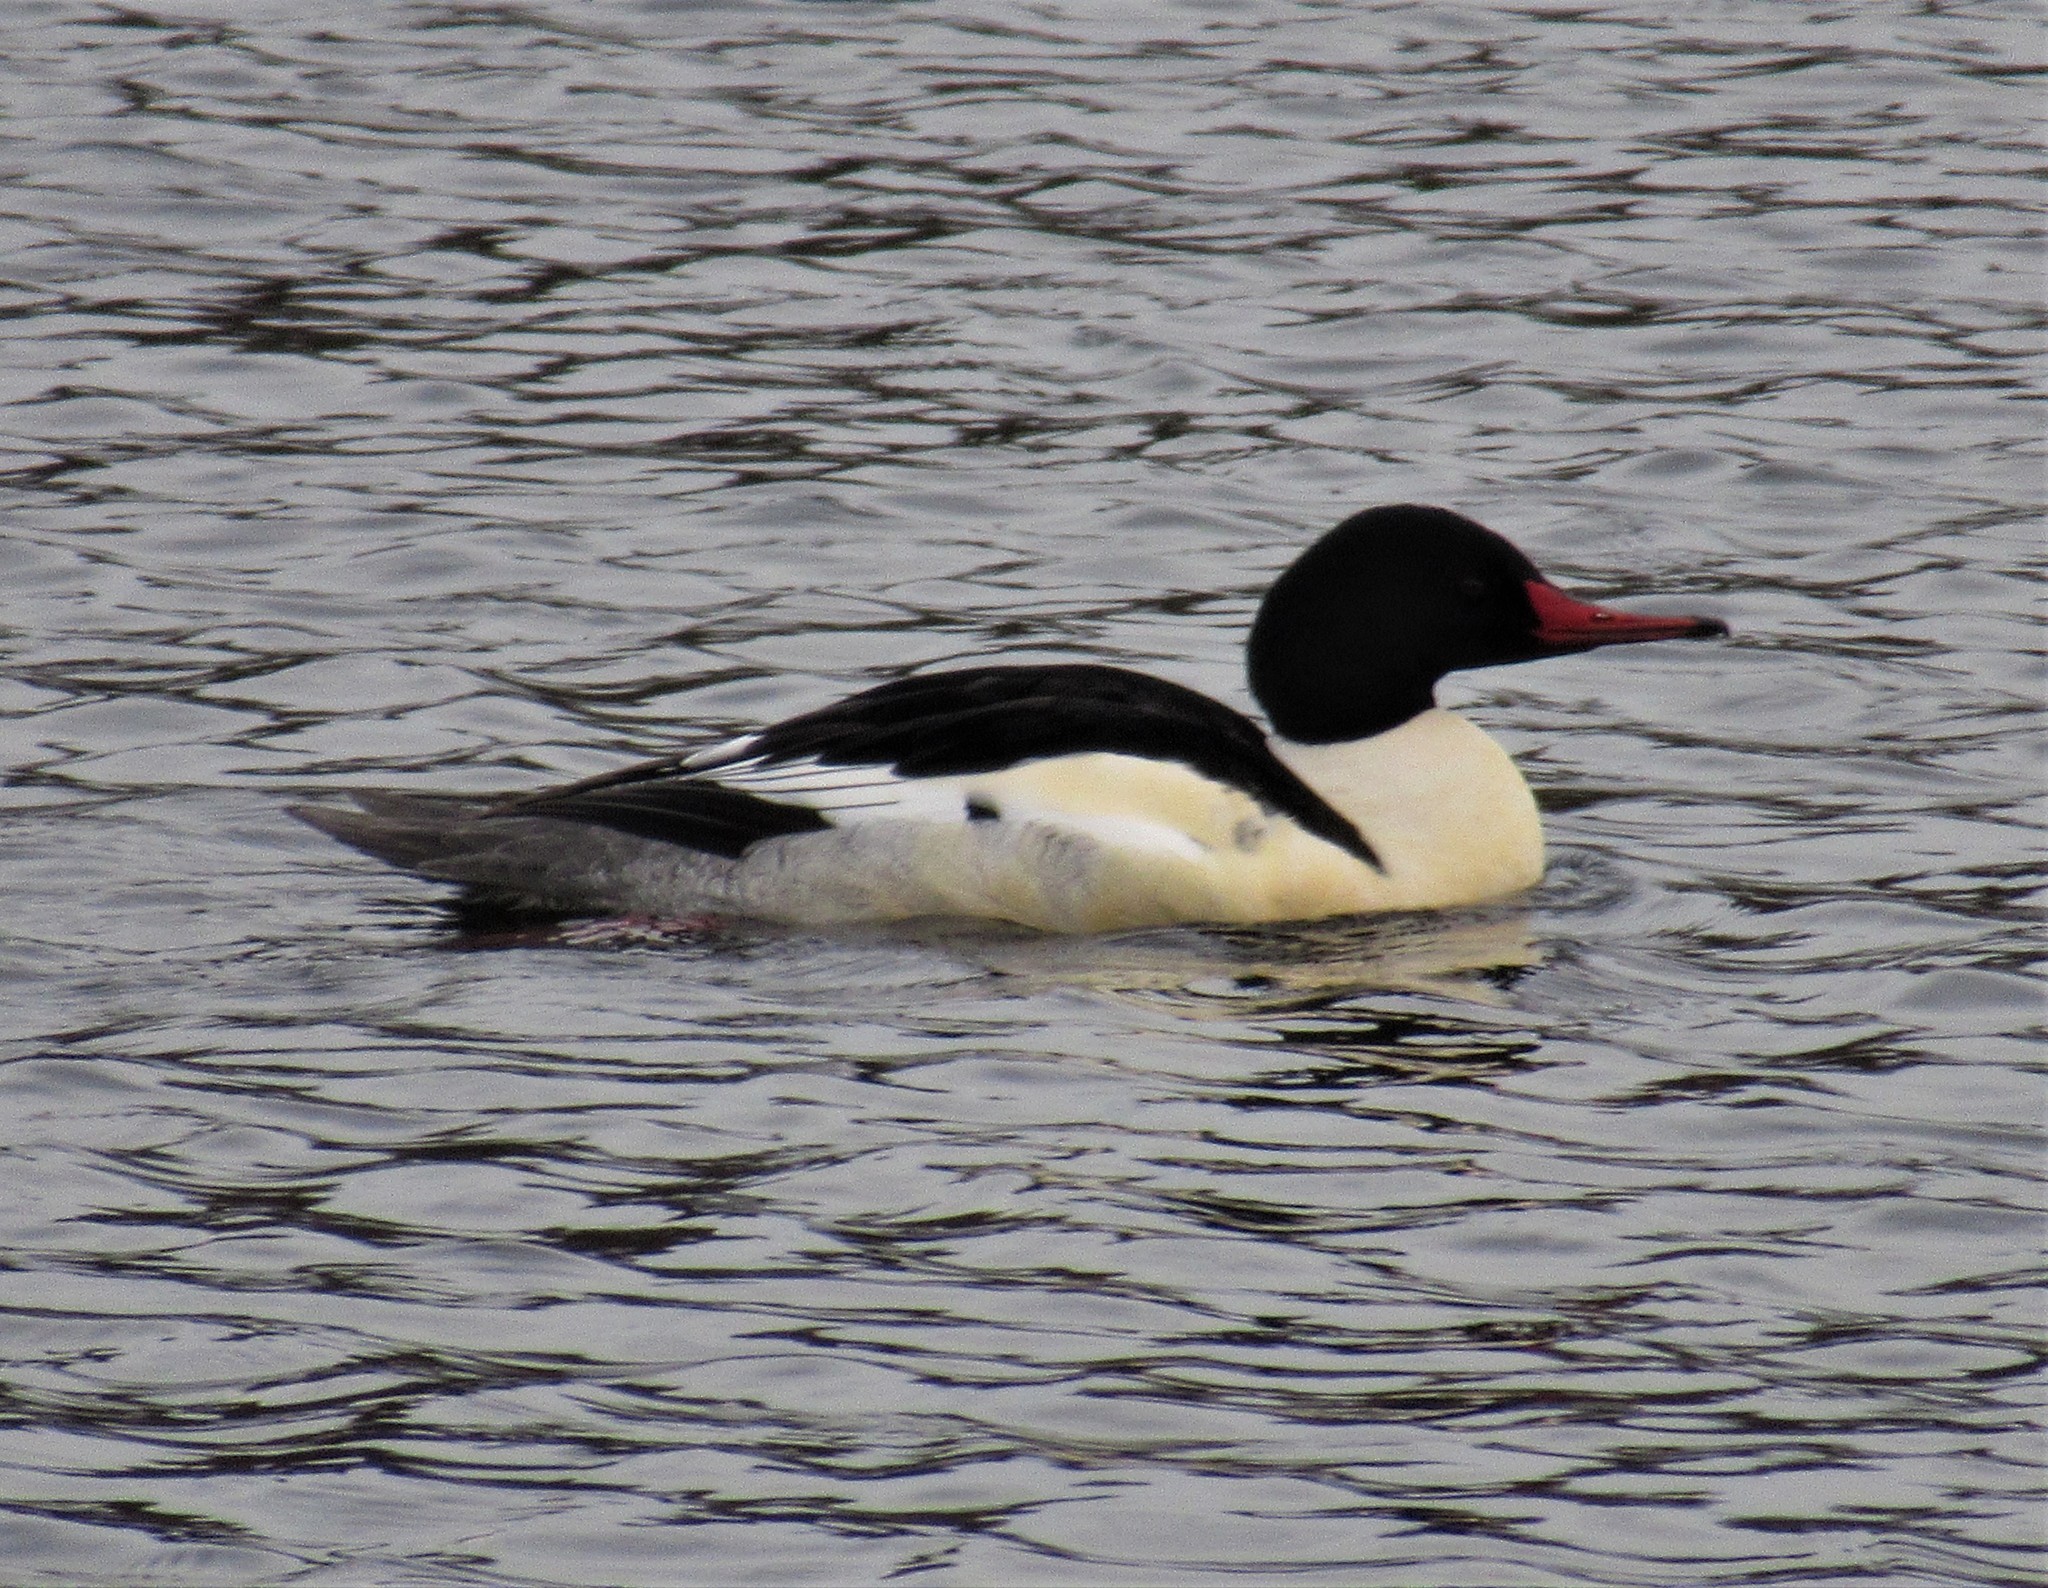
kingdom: Animalia
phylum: Chordata
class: Aves
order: Anseriformes
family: Anatidae
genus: Mergus
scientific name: Mergus merganser
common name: Common merganser
